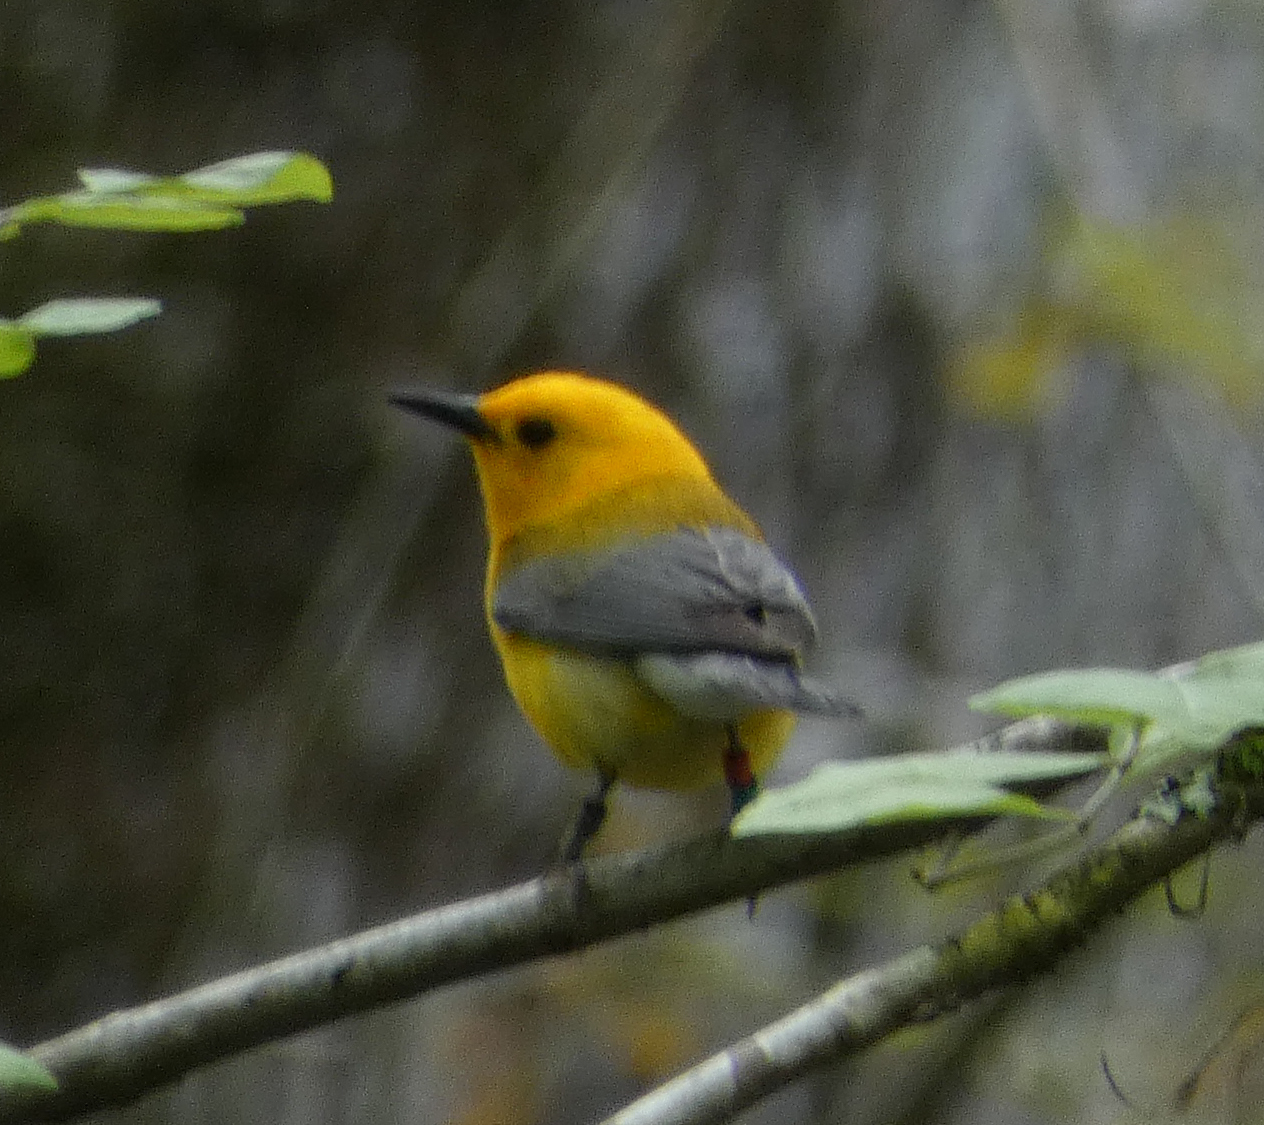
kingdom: Animalia
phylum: Chordata
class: Aves
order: Passeriformes
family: Parulidae
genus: Protonotaria
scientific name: Protonotaria citrea
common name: Prothonotary warbler
